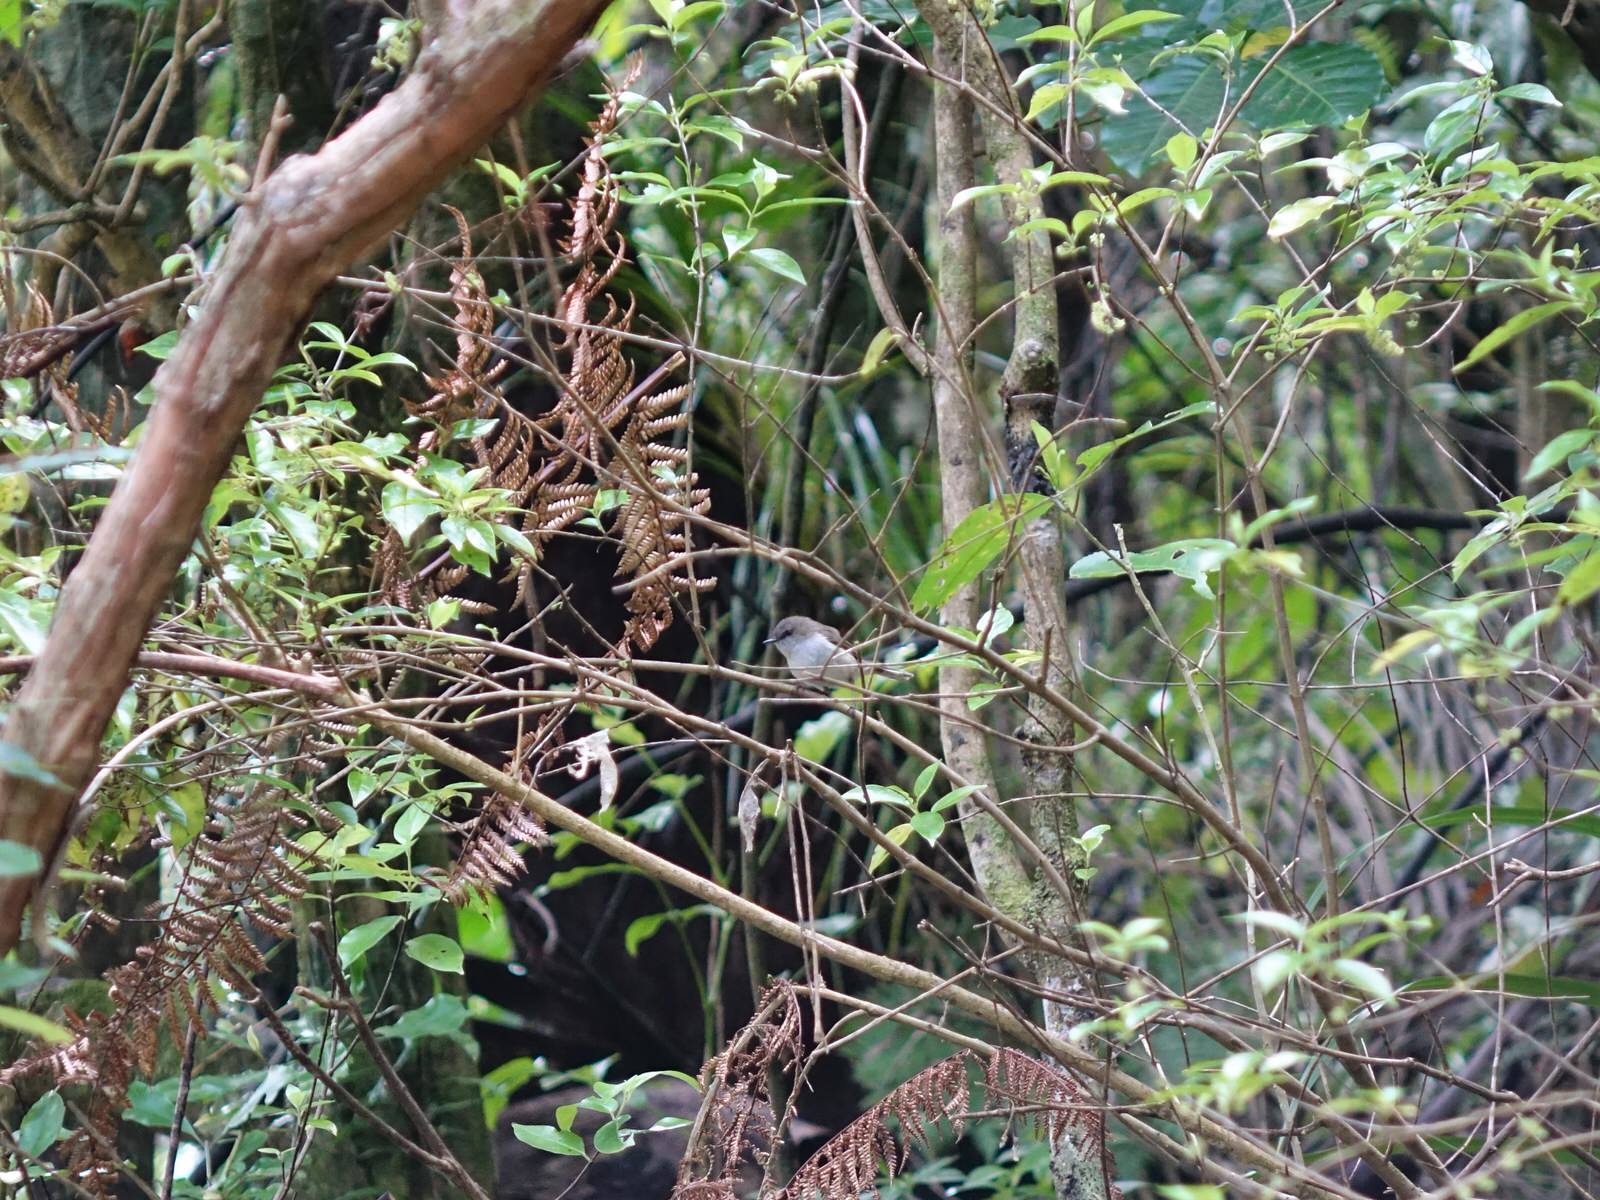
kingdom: Animalia
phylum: Chordata
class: Aves
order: Passeriformes
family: Acanthizidae
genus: Gerygone
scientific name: Gerygone igata
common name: Grey gerygone
